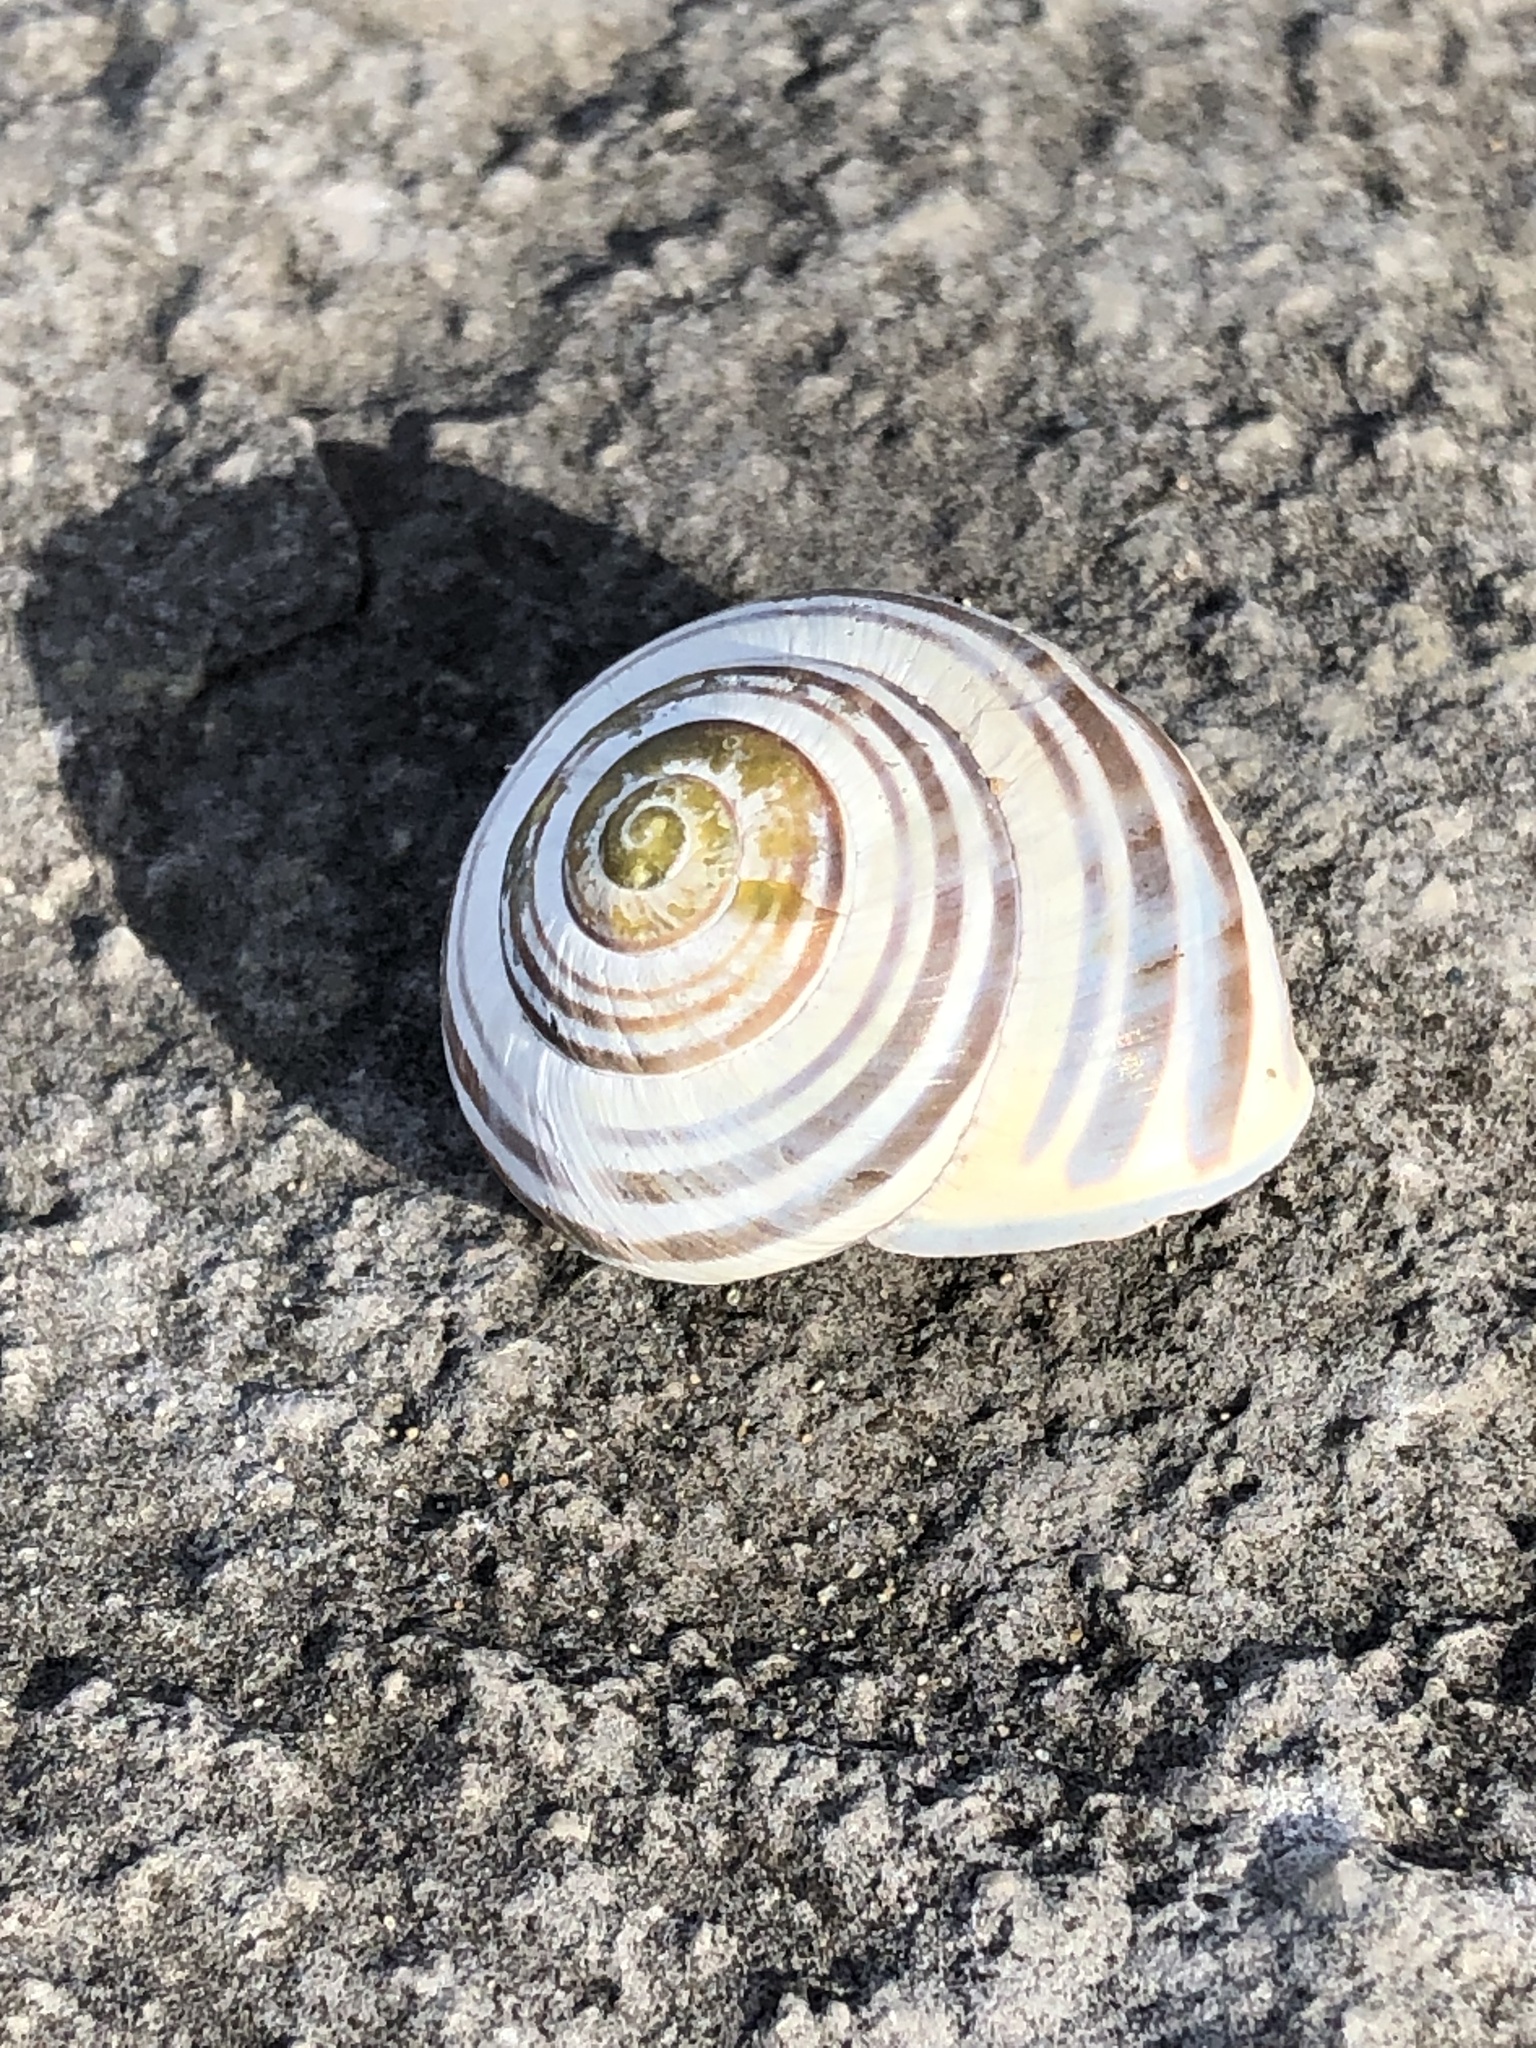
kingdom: Animalia
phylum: Mollusca
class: Gastropoda
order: Stylommatophora
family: Helicidae
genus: Cepaea
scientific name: Cepaea nemoralis
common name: Grovesnail
